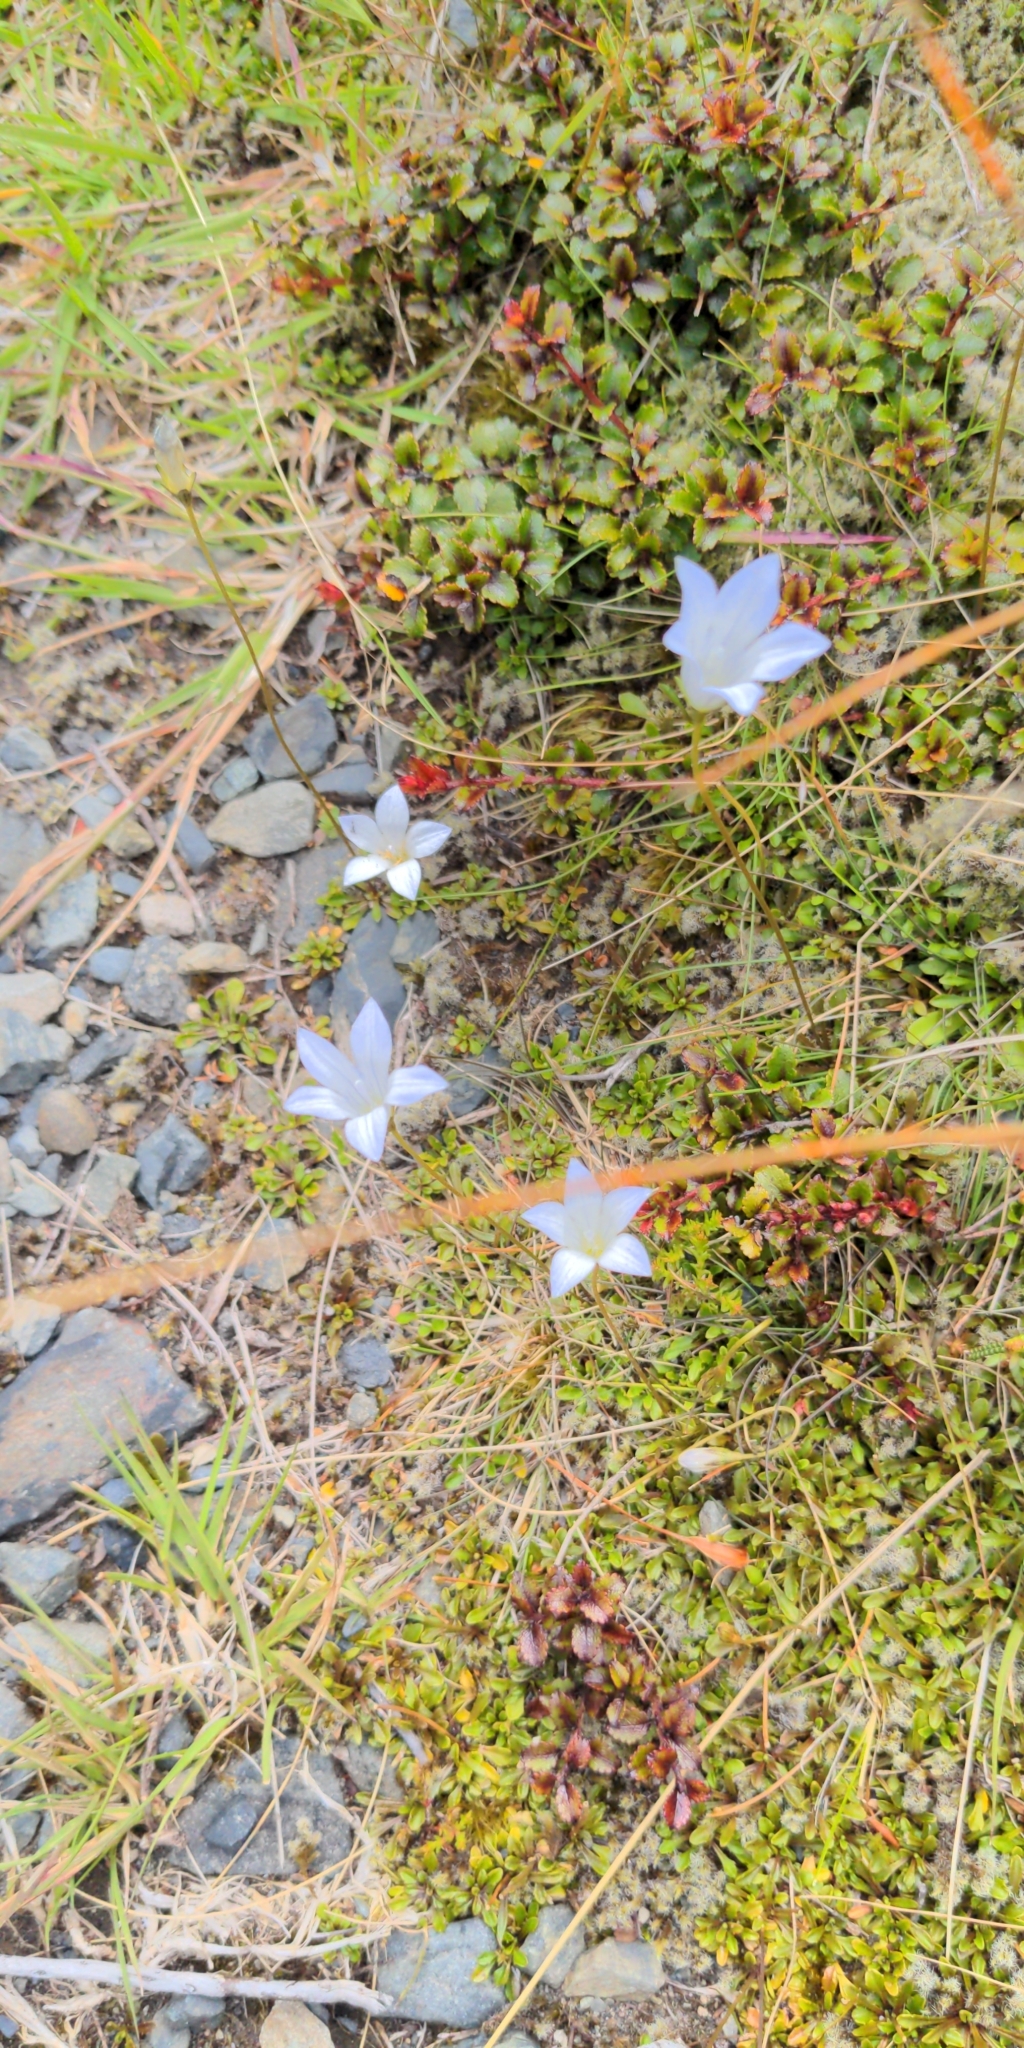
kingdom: Plantae
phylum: Tracheophyta
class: Magnoliopsida
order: Asterales
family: Campanulaceae
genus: Wahlenbergia
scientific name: Wahlenbergia pygmaea
